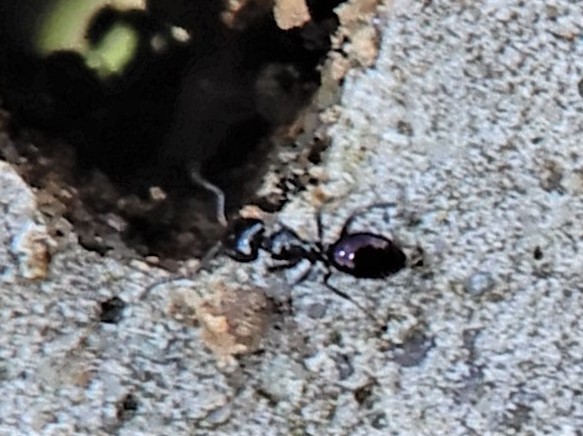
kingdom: Animalia
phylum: Arthropoda
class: Insecta
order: Hymenoptera
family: Formicidae
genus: Ochetellus
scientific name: Ochetellus glaber
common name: Ant
